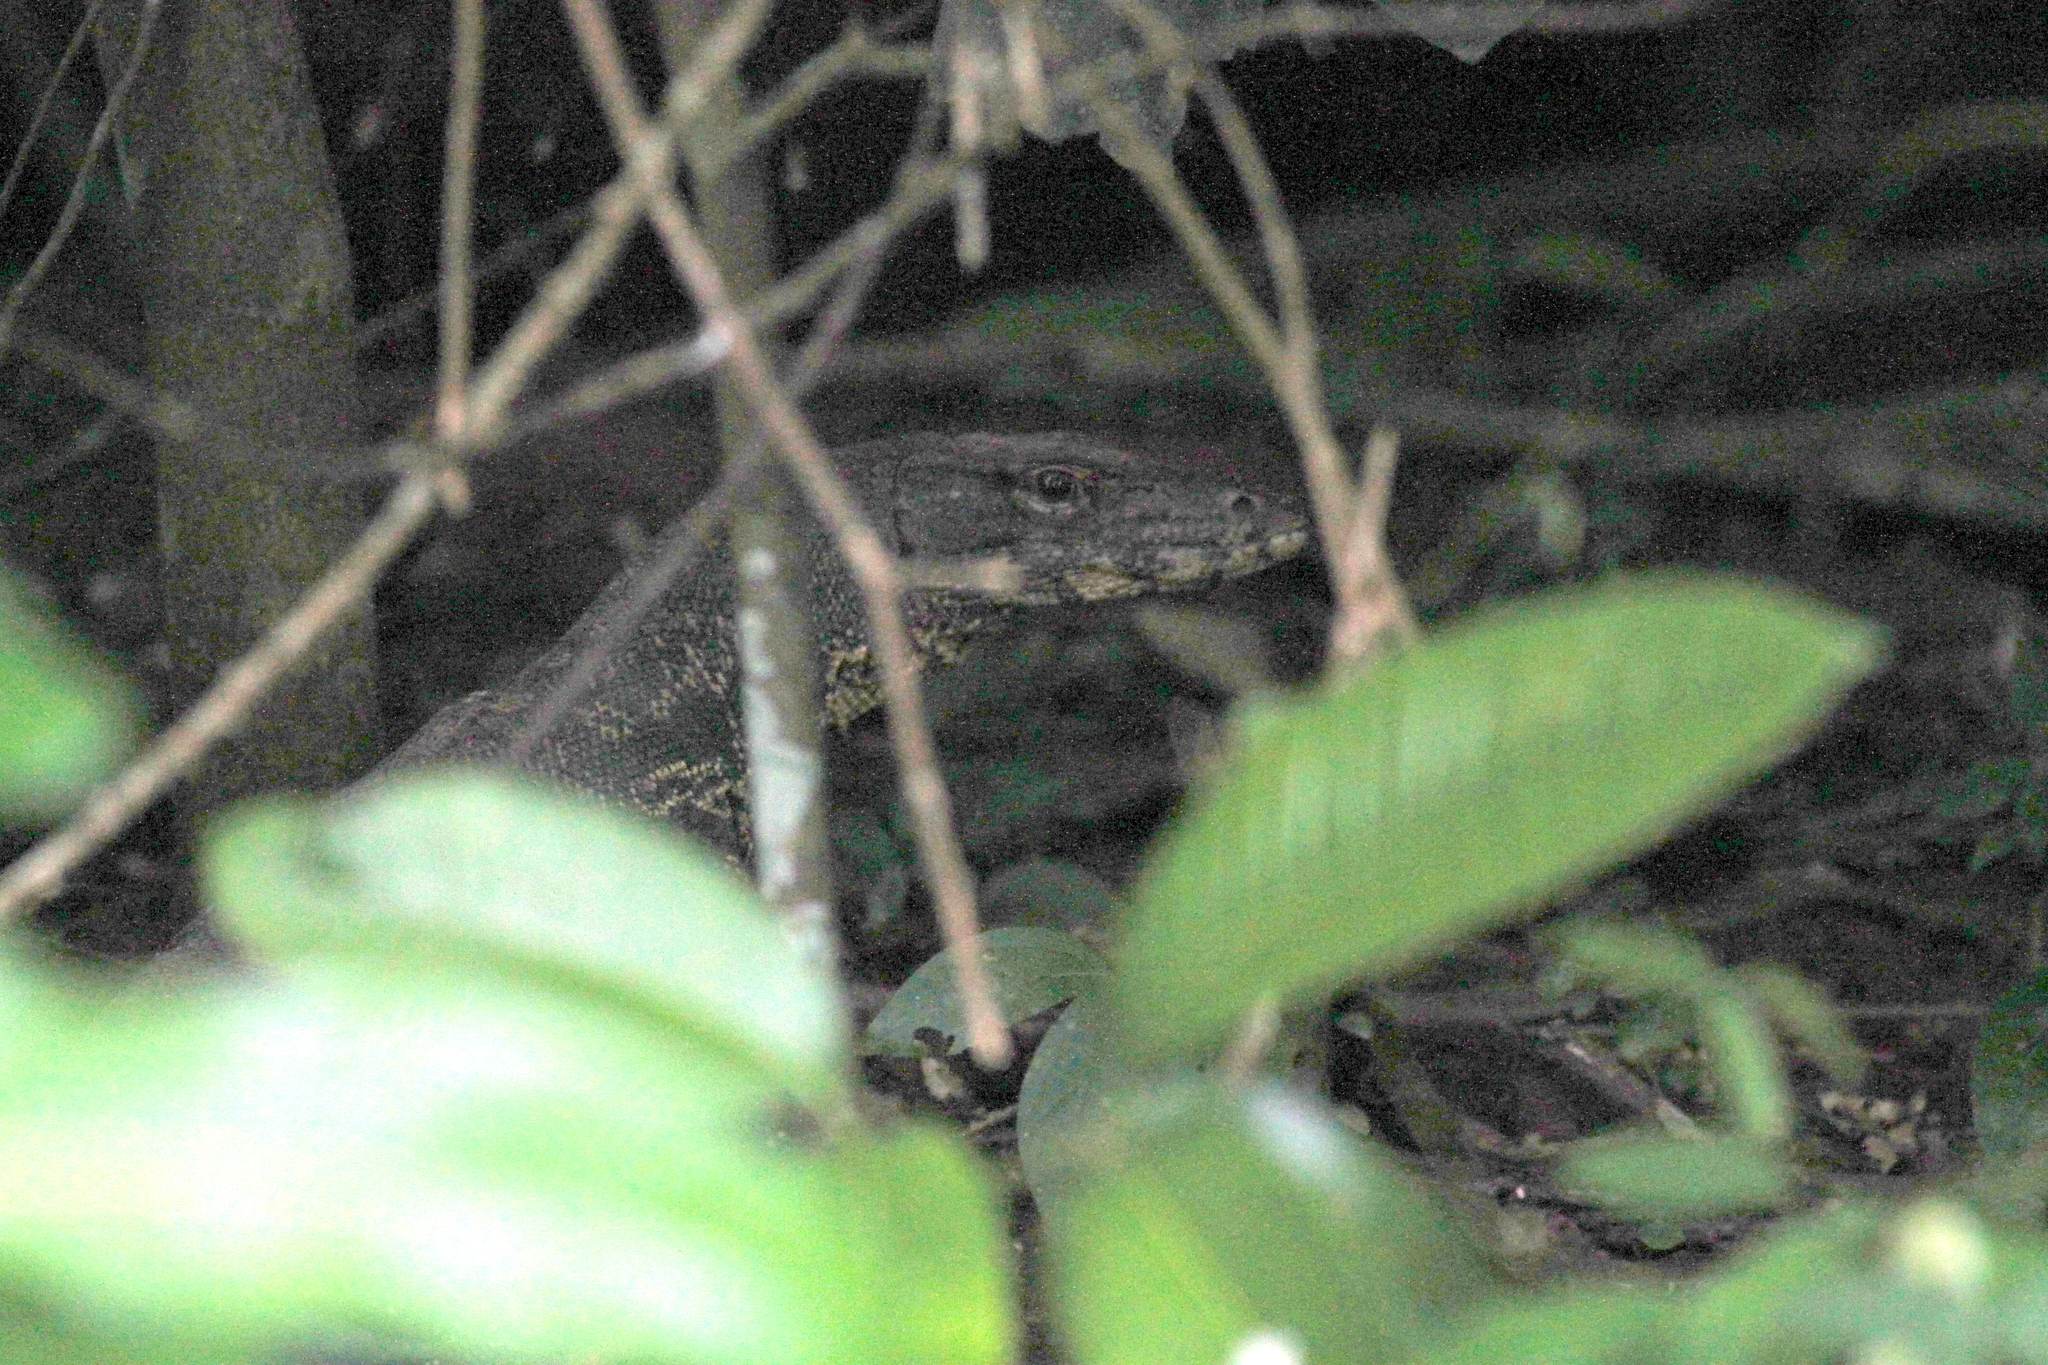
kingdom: Animalia
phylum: Chordata
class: Squamata
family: Varanidae
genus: Varanus
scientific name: Varanus salvator
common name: Common water monitor
